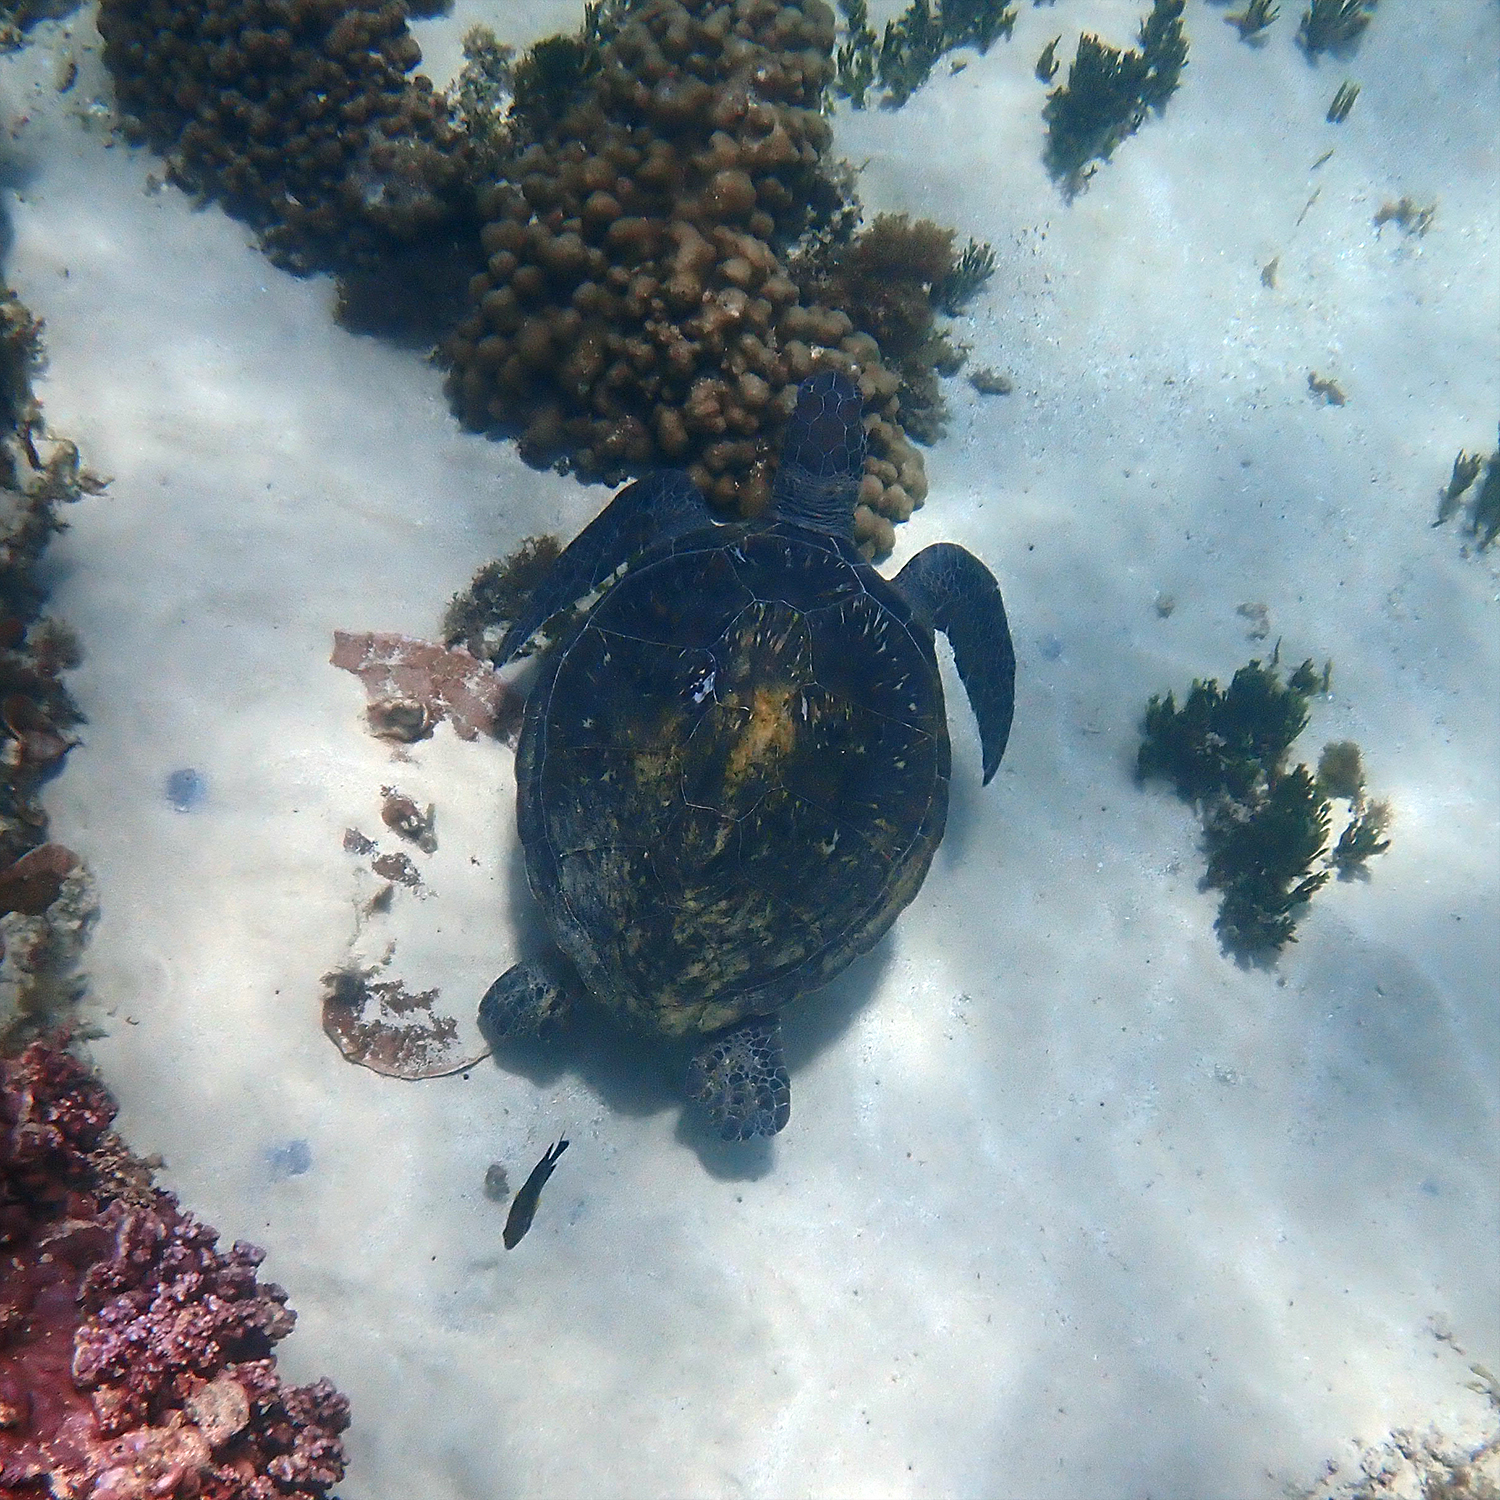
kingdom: Animalia
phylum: Chordata
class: Testudines
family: Cheloniidae
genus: Chelonia
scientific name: Chelonia mydas
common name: Green turtle
